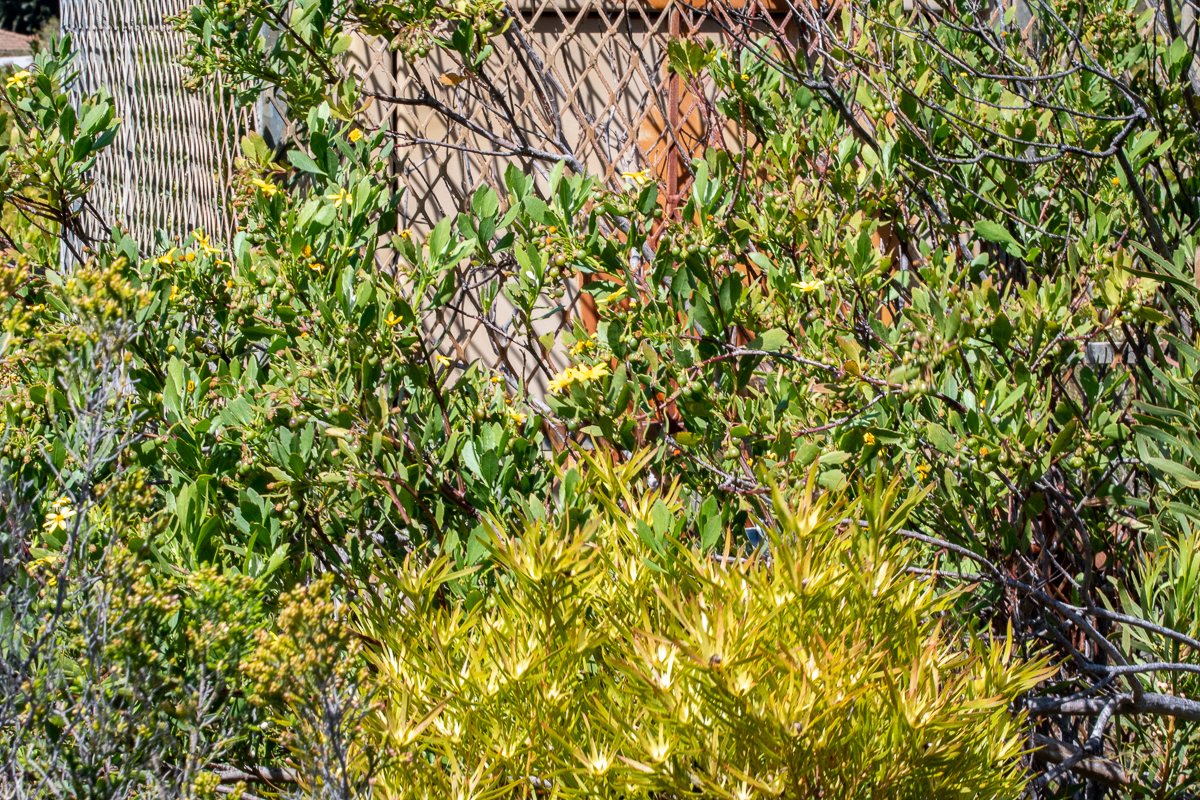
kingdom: Plantae
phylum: Tracheophyta
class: Magnoliopsida
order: Proteales
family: Proteaceae
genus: Leucadendron
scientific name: Leucadendron xanthoconus
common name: Sickle-leaf conebush
